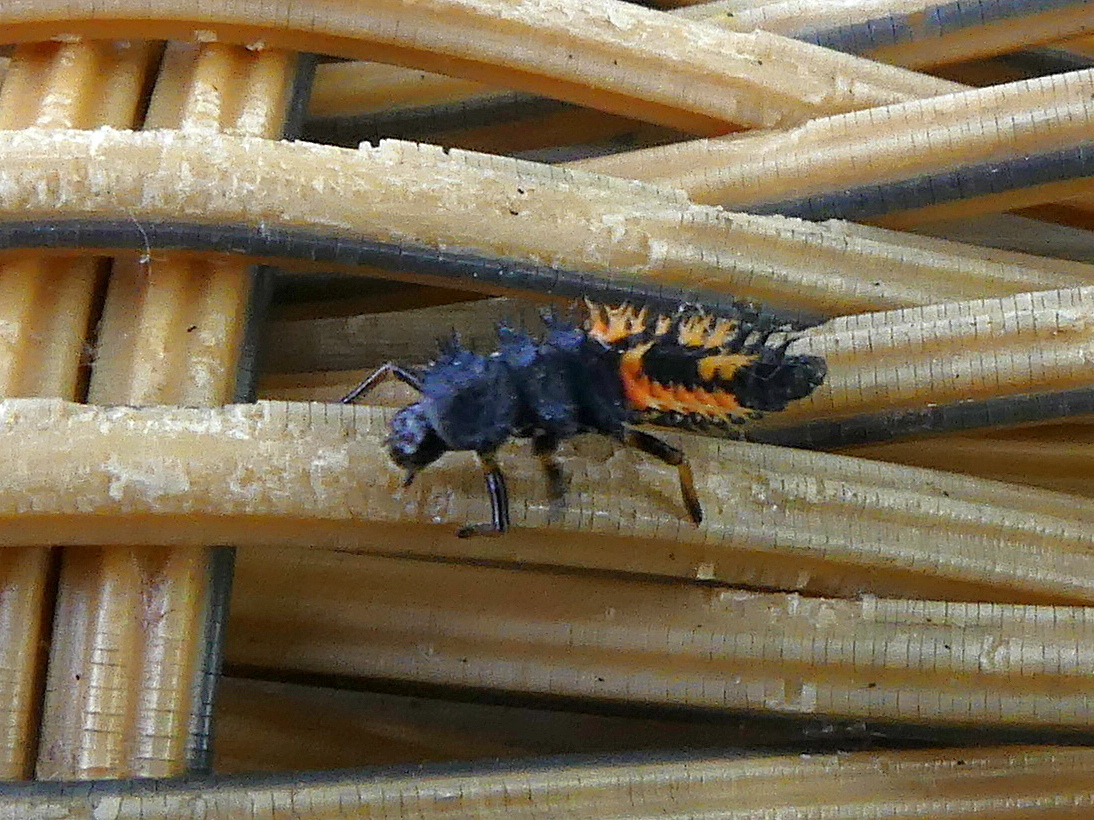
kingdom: Animalia
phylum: Arthropoda
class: Insecta
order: Coleoptera
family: Coccinellidae
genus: Harmonia
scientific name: Harmonia axyridis
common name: Harlequin ladybird
